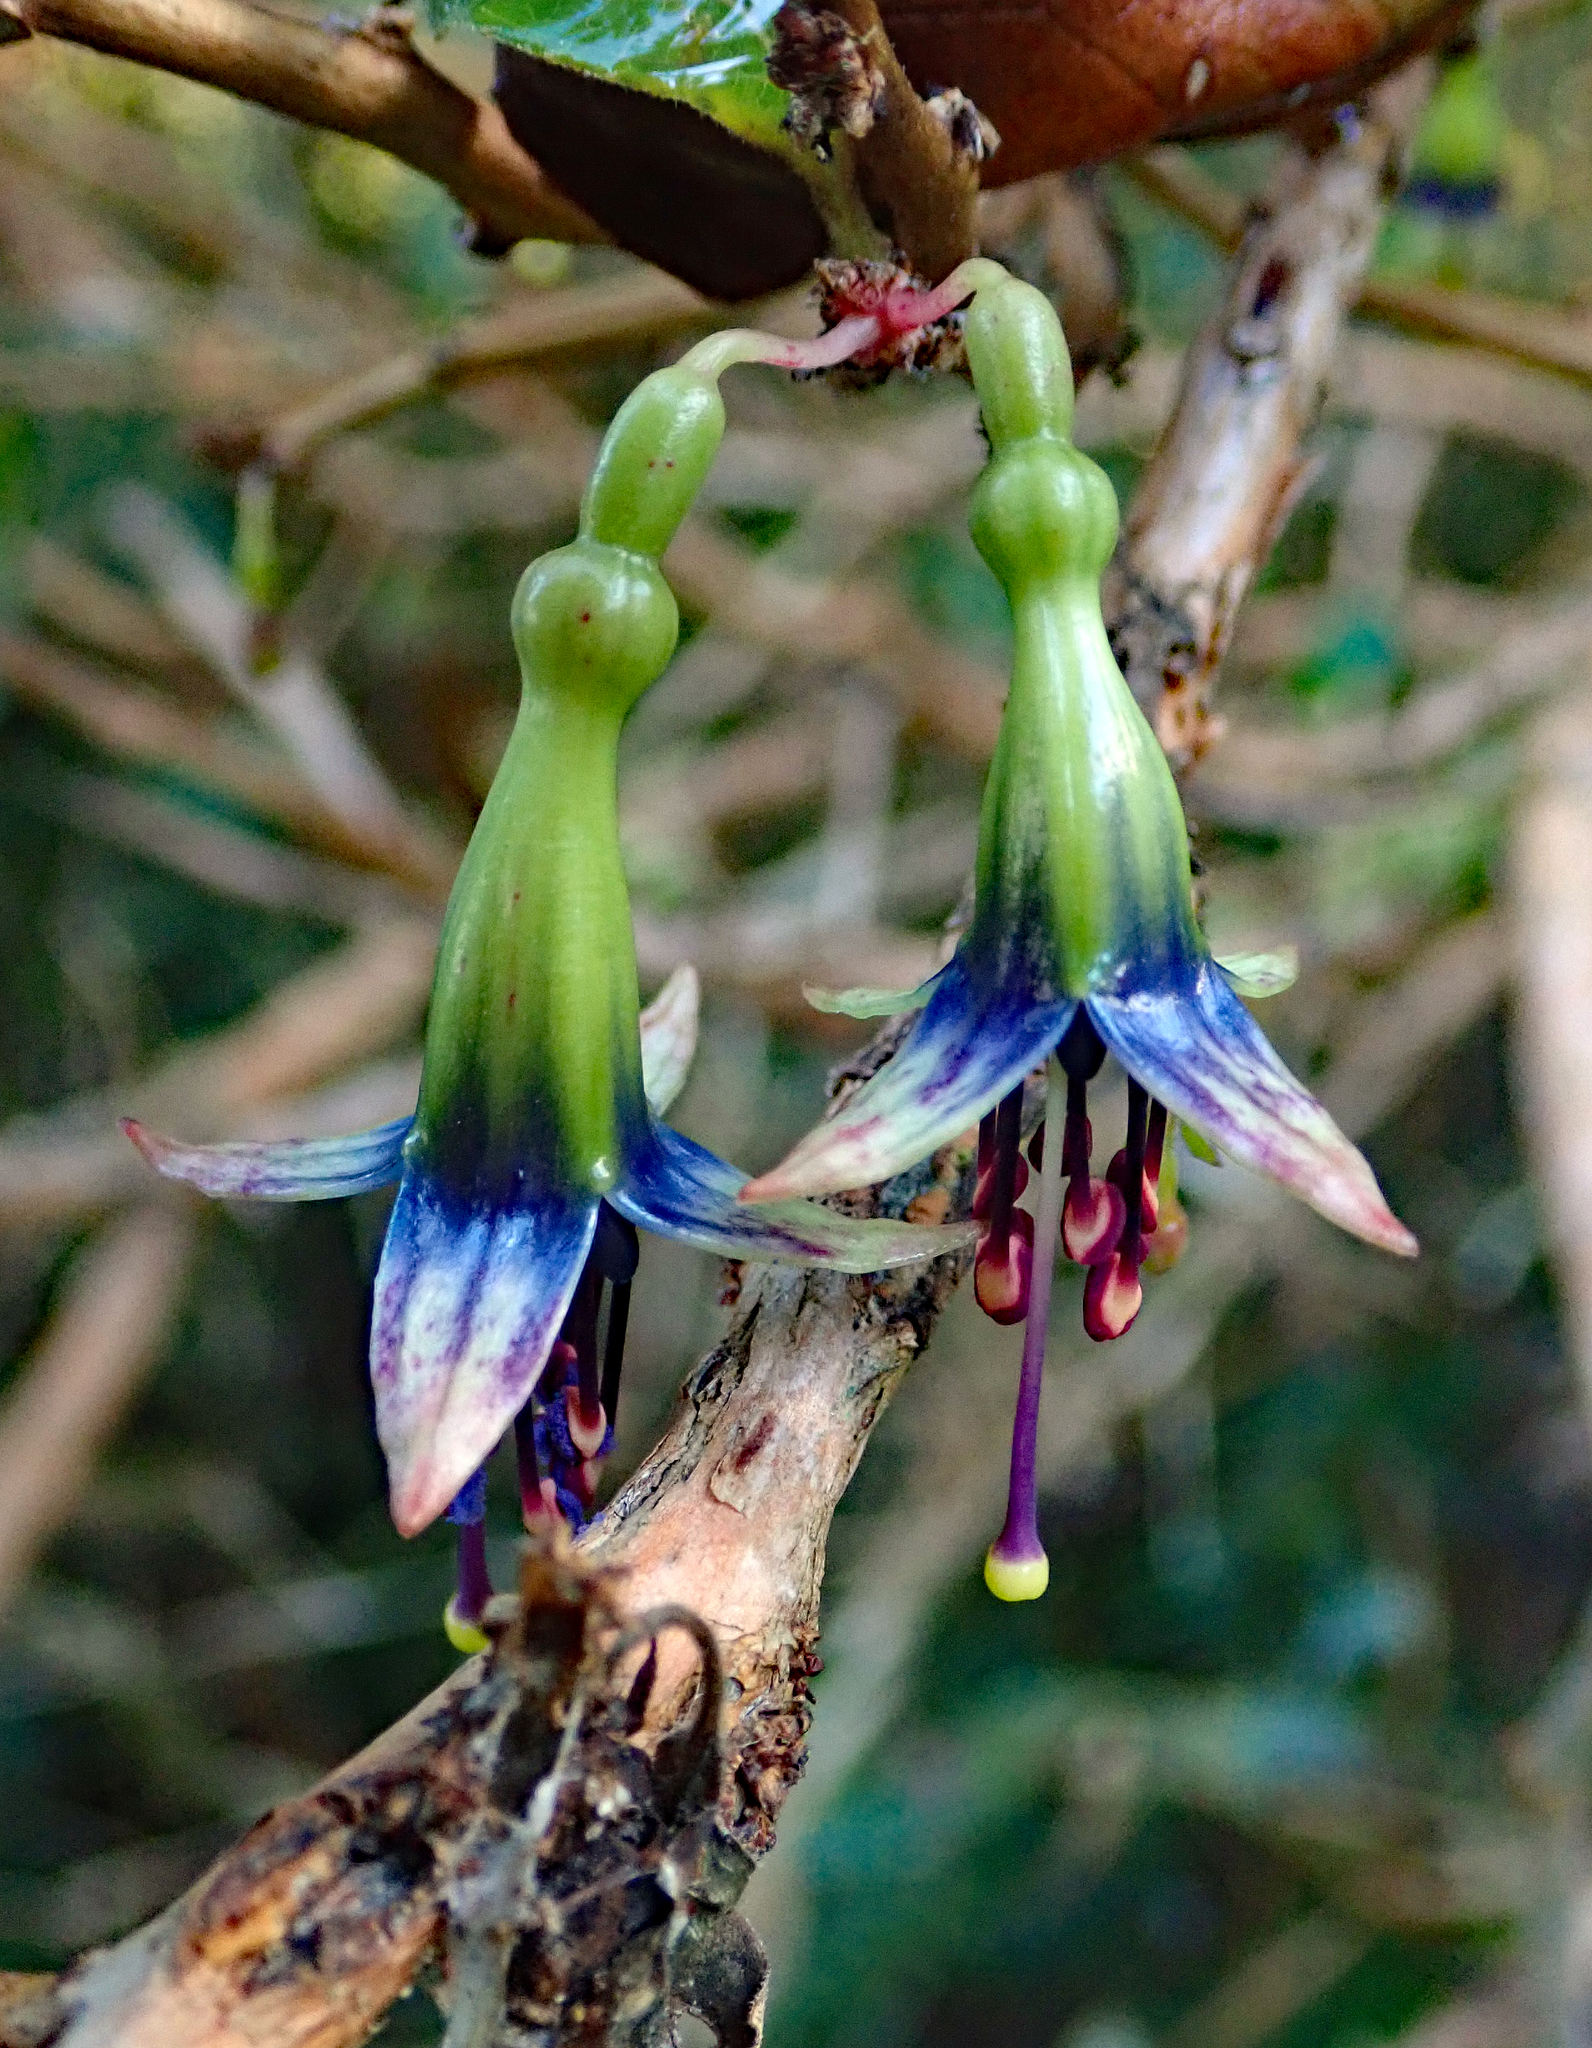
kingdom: Plantae
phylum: Tracheophyta
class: Magnoliopsida
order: Myrtales
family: Onagraceae
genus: Fuchsia
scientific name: Fuchsia excorticata
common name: Tree fuchsia
